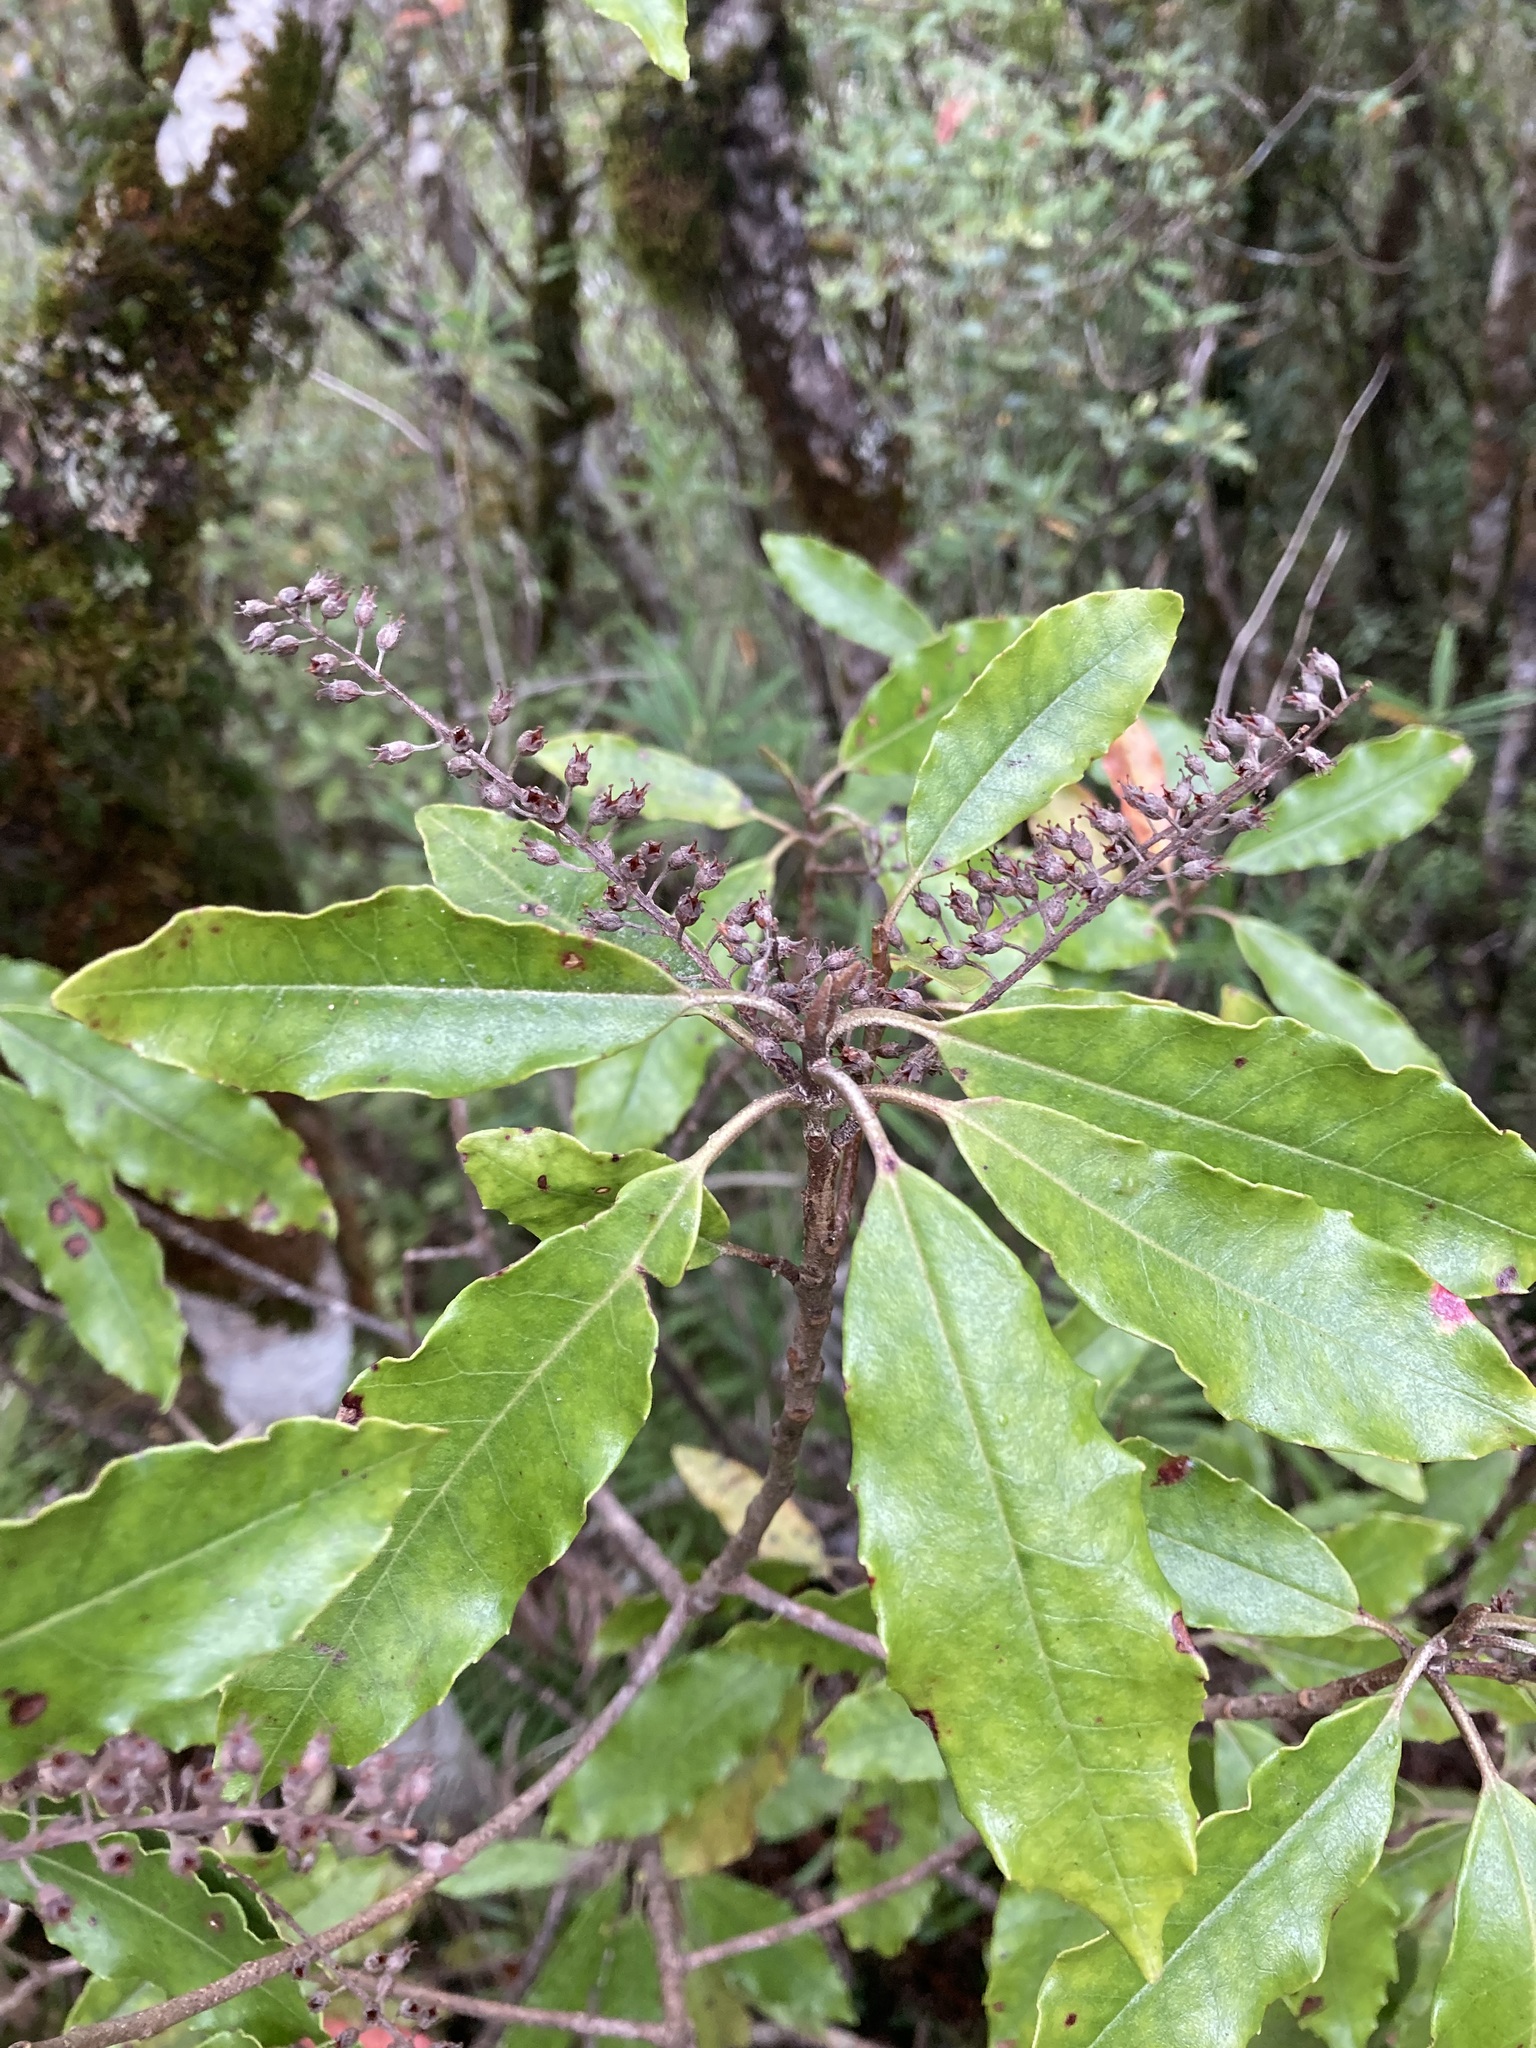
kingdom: Plantae
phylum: Tracheophyta
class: Magnoliopsida
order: Paracryphiales
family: Paracryphiaceae
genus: Quintinia
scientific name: Quintinia serrata
